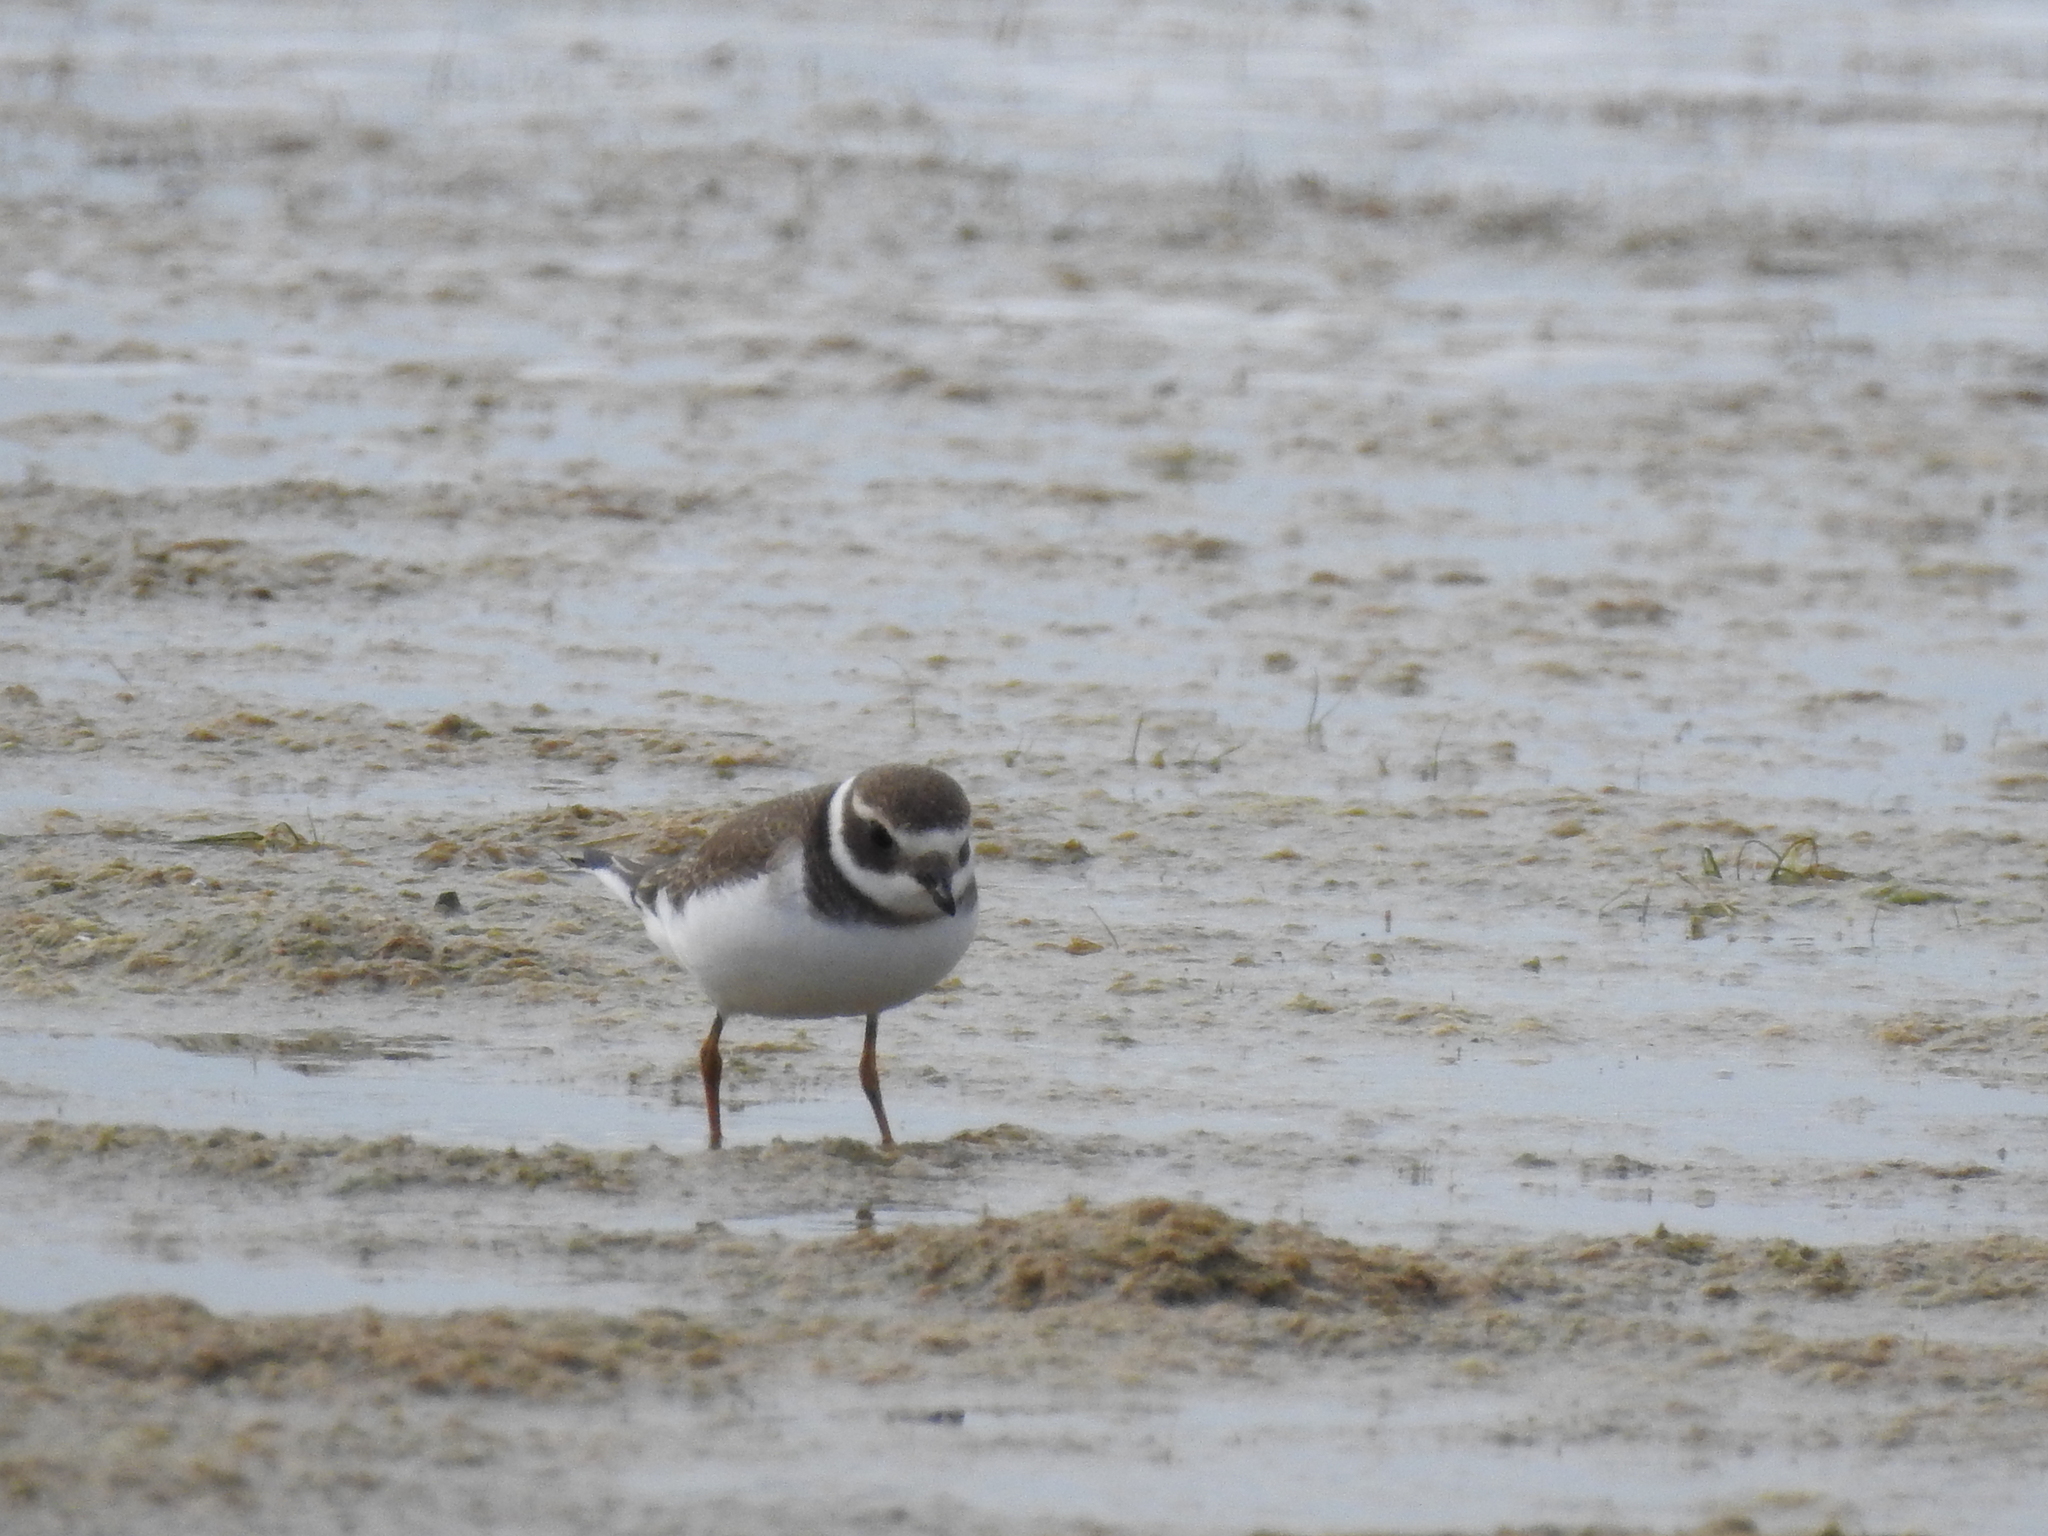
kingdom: Animalia
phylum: Chordata
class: Aves
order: Charadriiformes
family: Charadriidae
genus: Charadrius
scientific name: Charadrius hiaticula
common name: Common ringed plover
